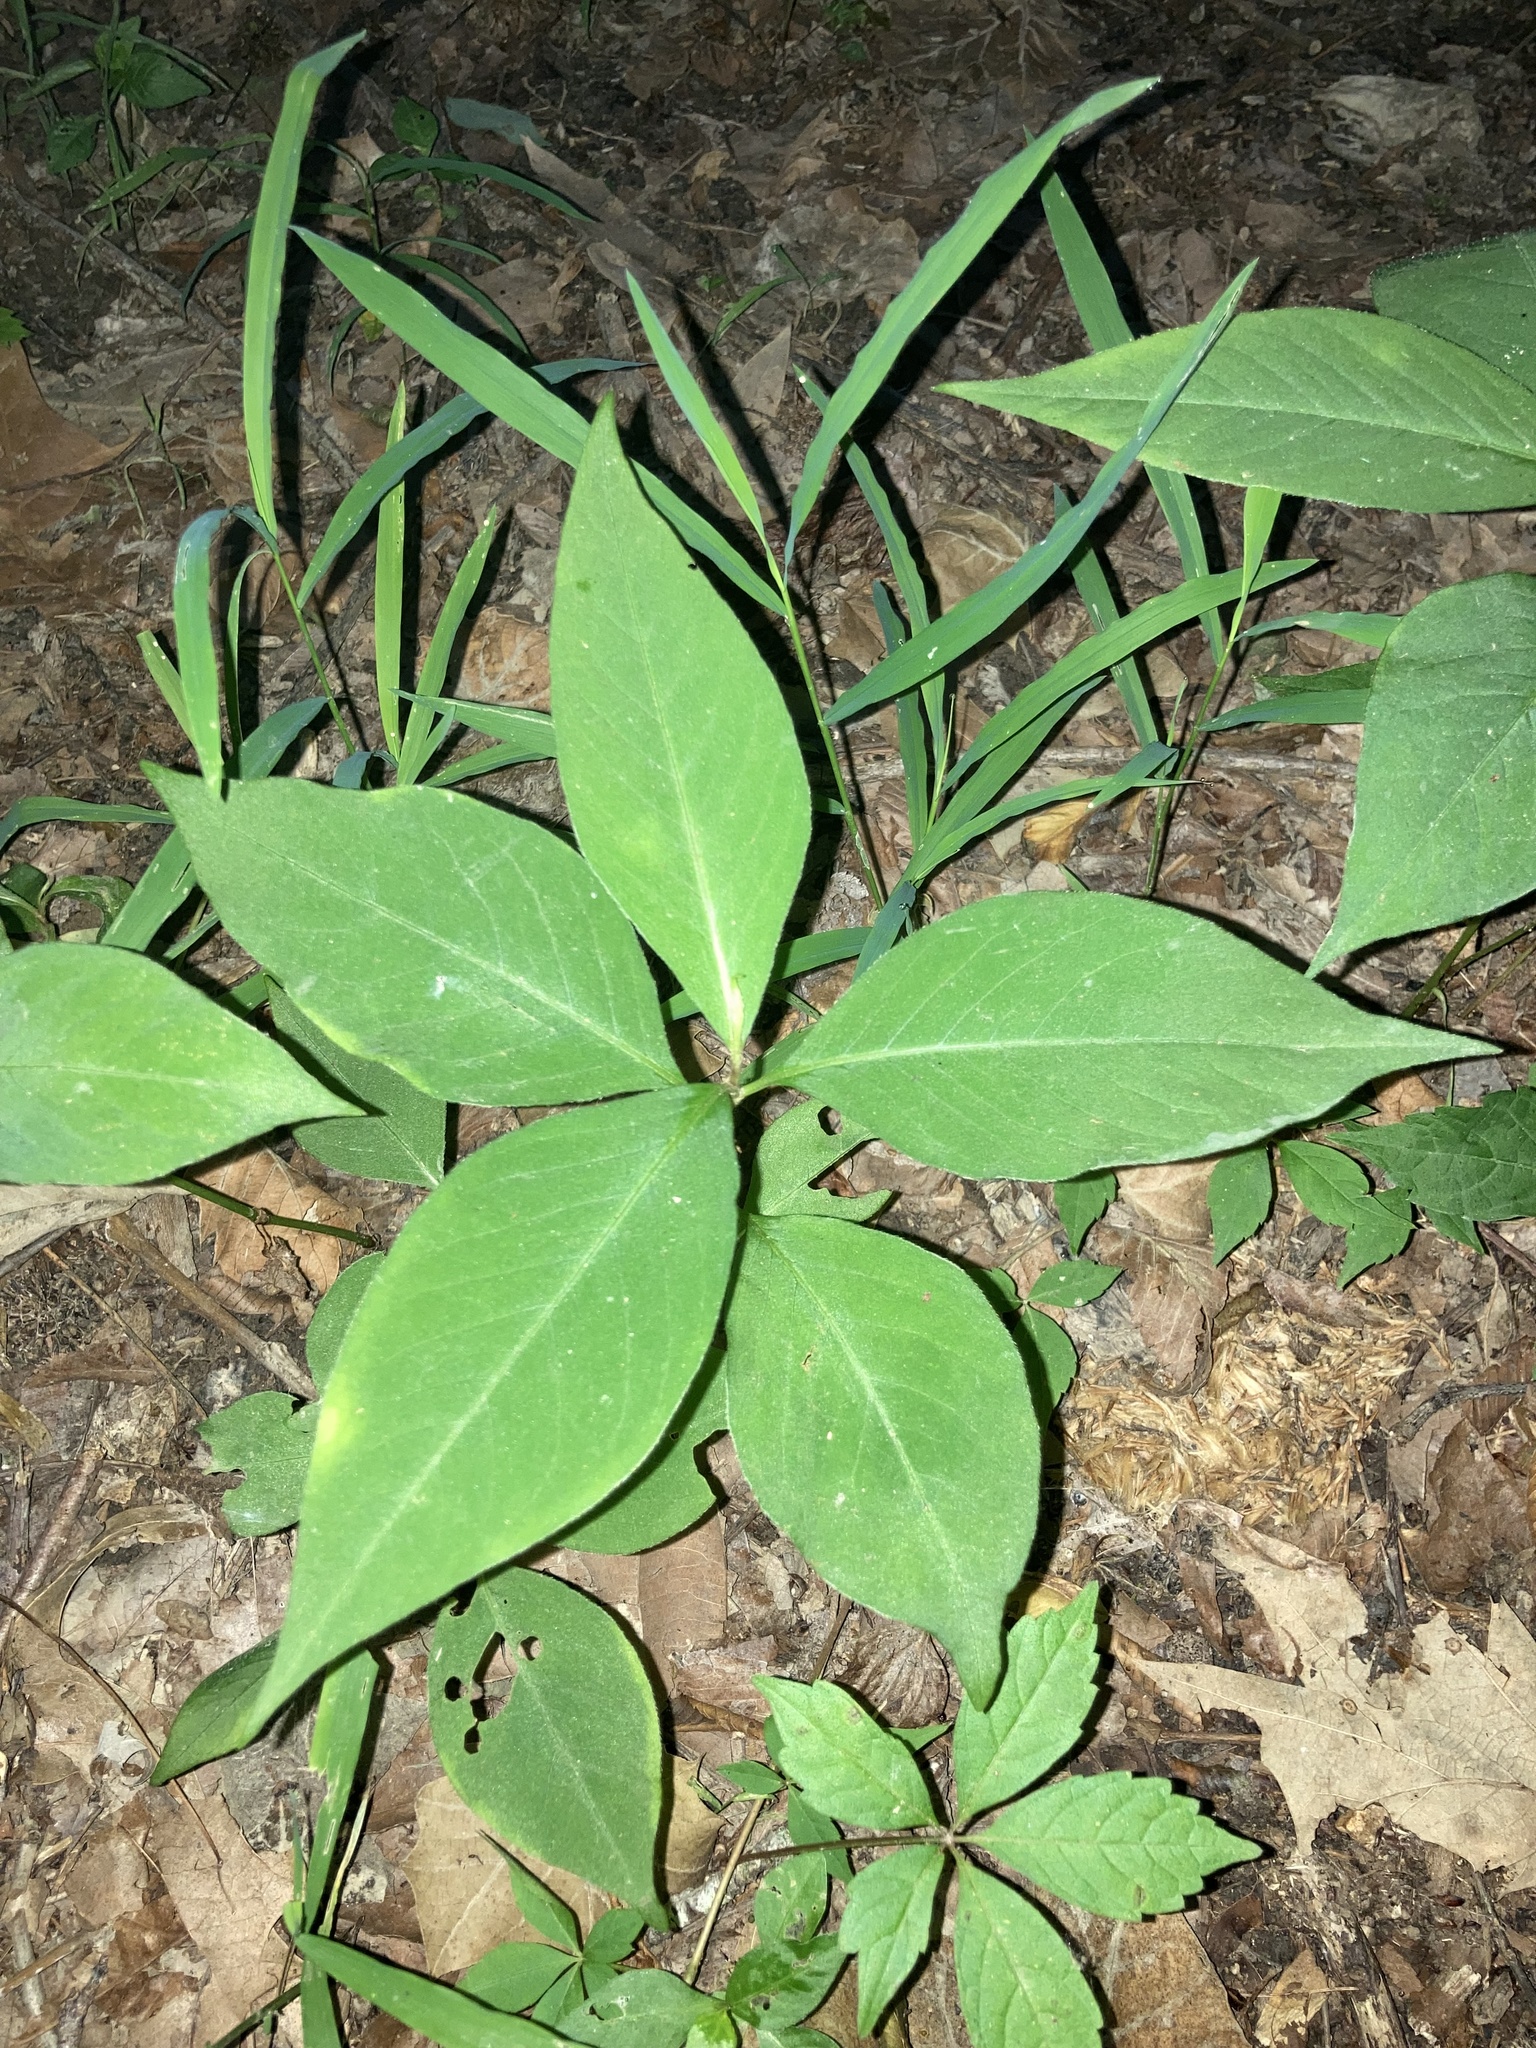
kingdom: Plantae
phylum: Tracheophyta
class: Magnoliopsida
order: Caryophyllales
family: Polygonaceae
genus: Persicaria
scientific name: Persicaria virginiana
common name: Jumpseed
